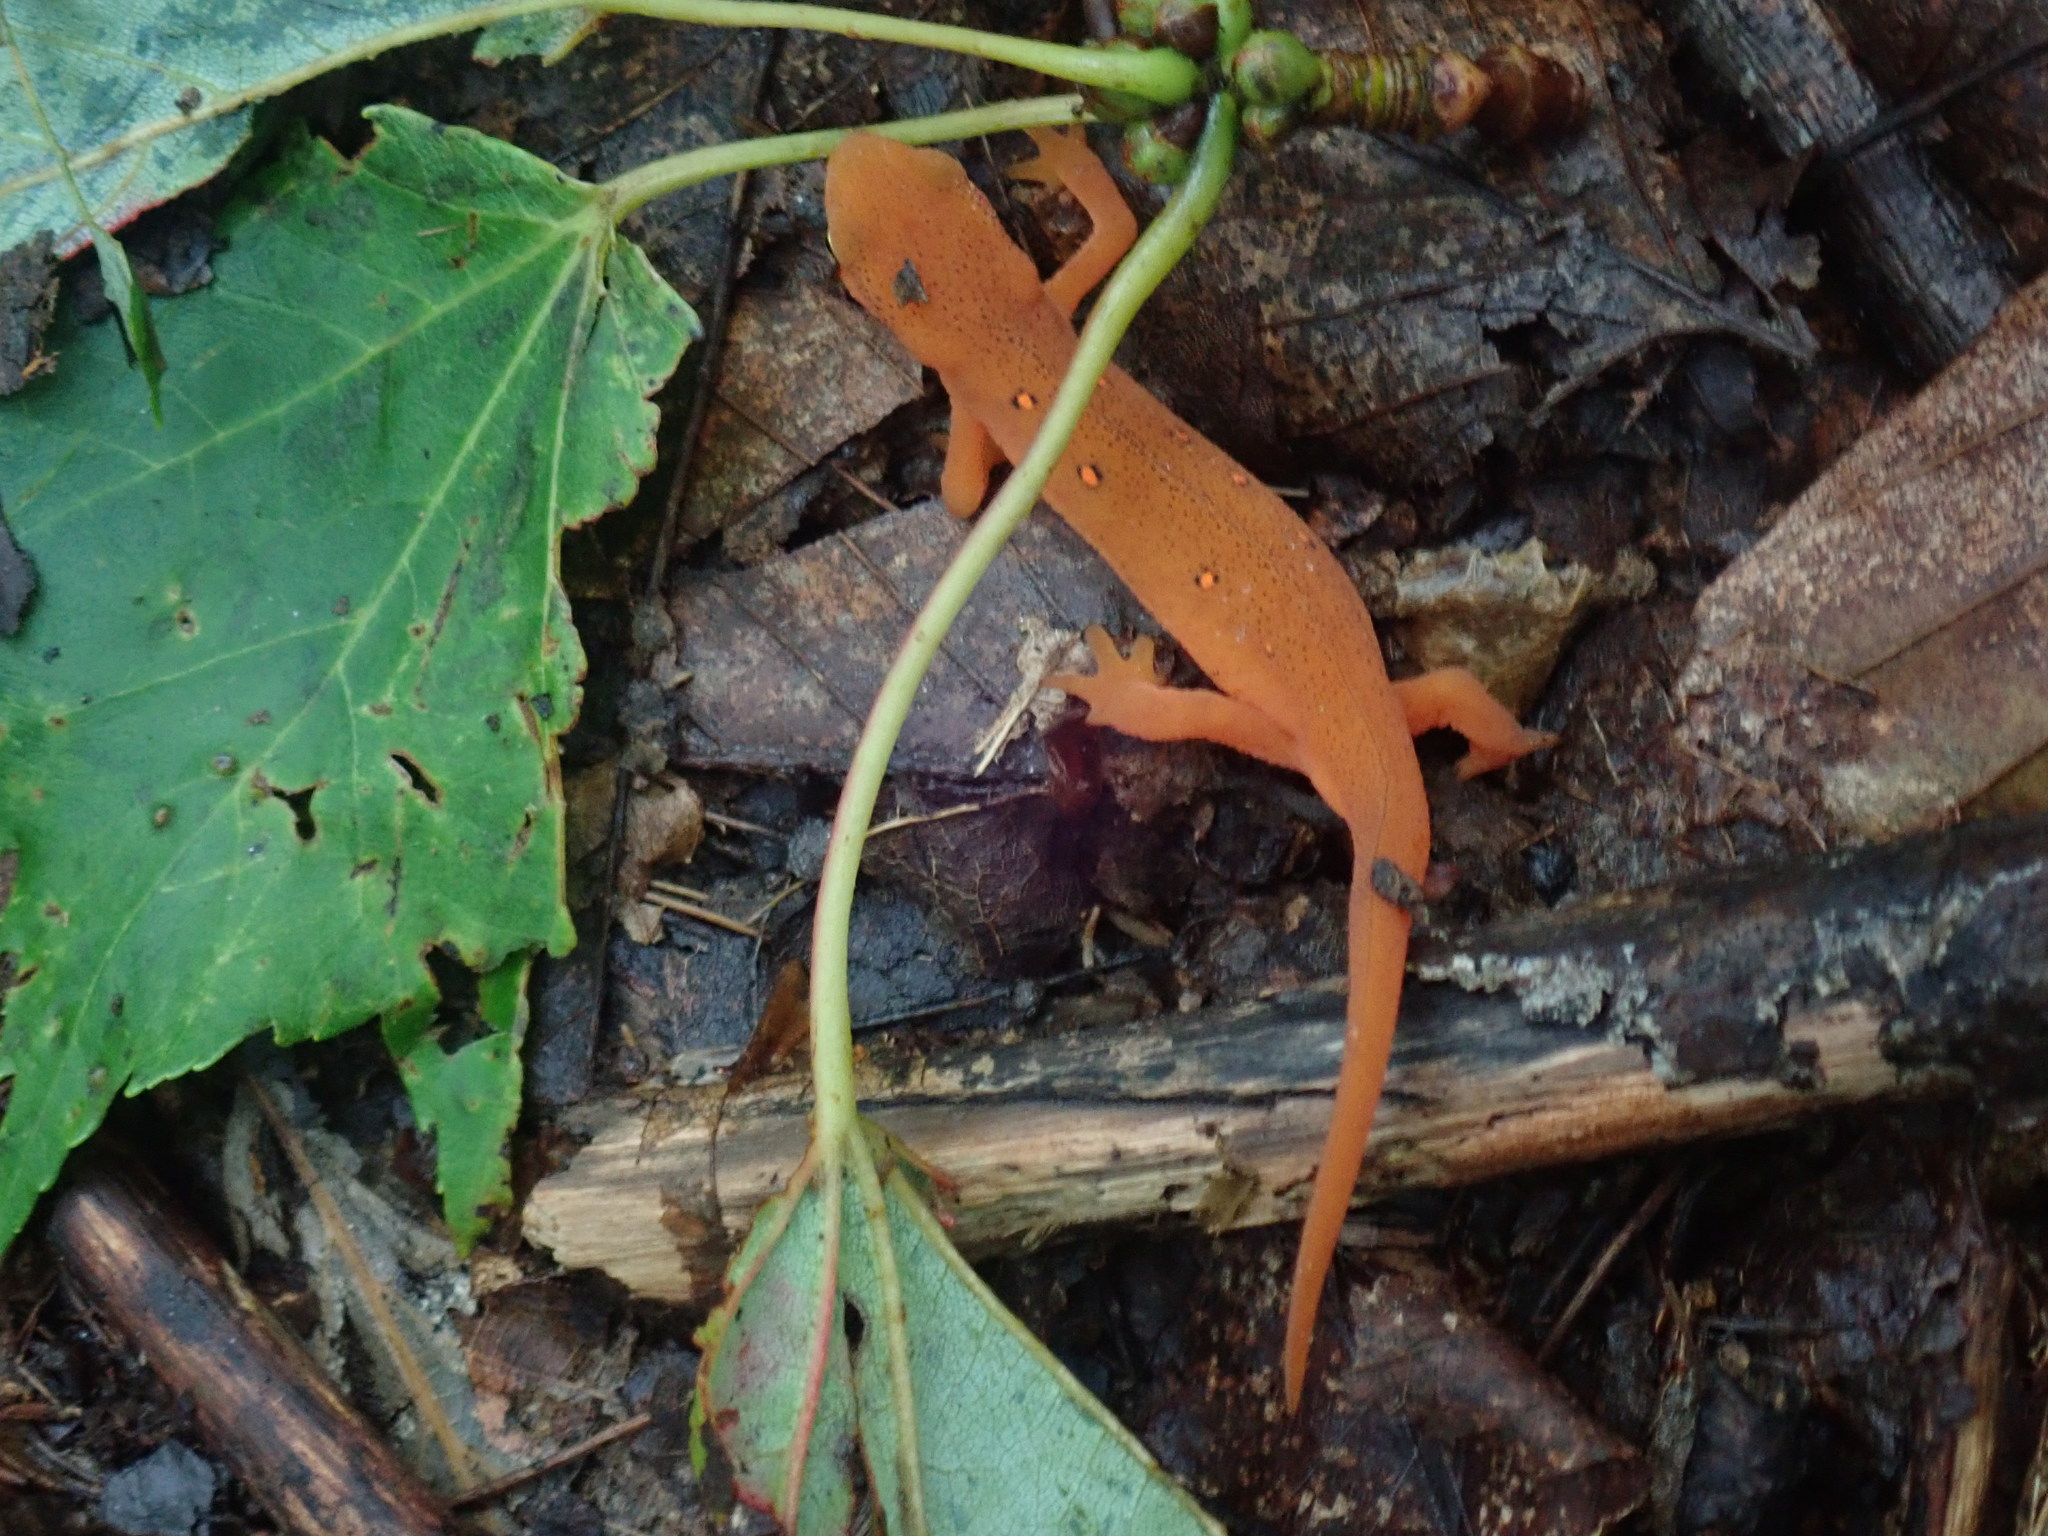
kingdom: Animalia
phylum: Chordata
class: Amphibia
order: Caudata
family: Salamandridae
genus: Notophthalmus
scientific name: Notophthalmus viridescens
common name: Eastern newt
